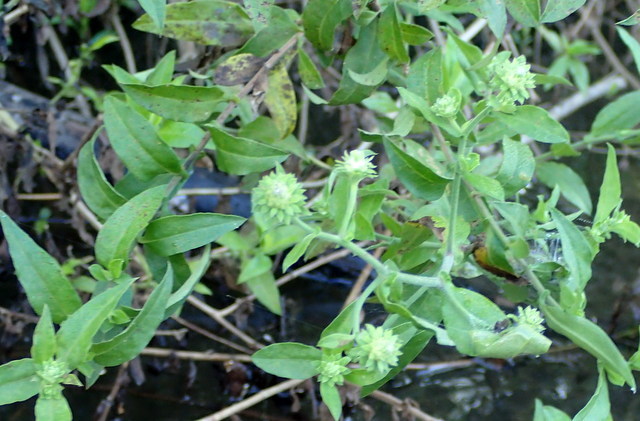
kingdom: Plantae
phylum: Tracheophyta
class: Magnoliopsida
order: Asterales
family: Asteraceae
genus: Ampelaster
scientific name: Ampelaster carolinianus
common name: Climbing aster
